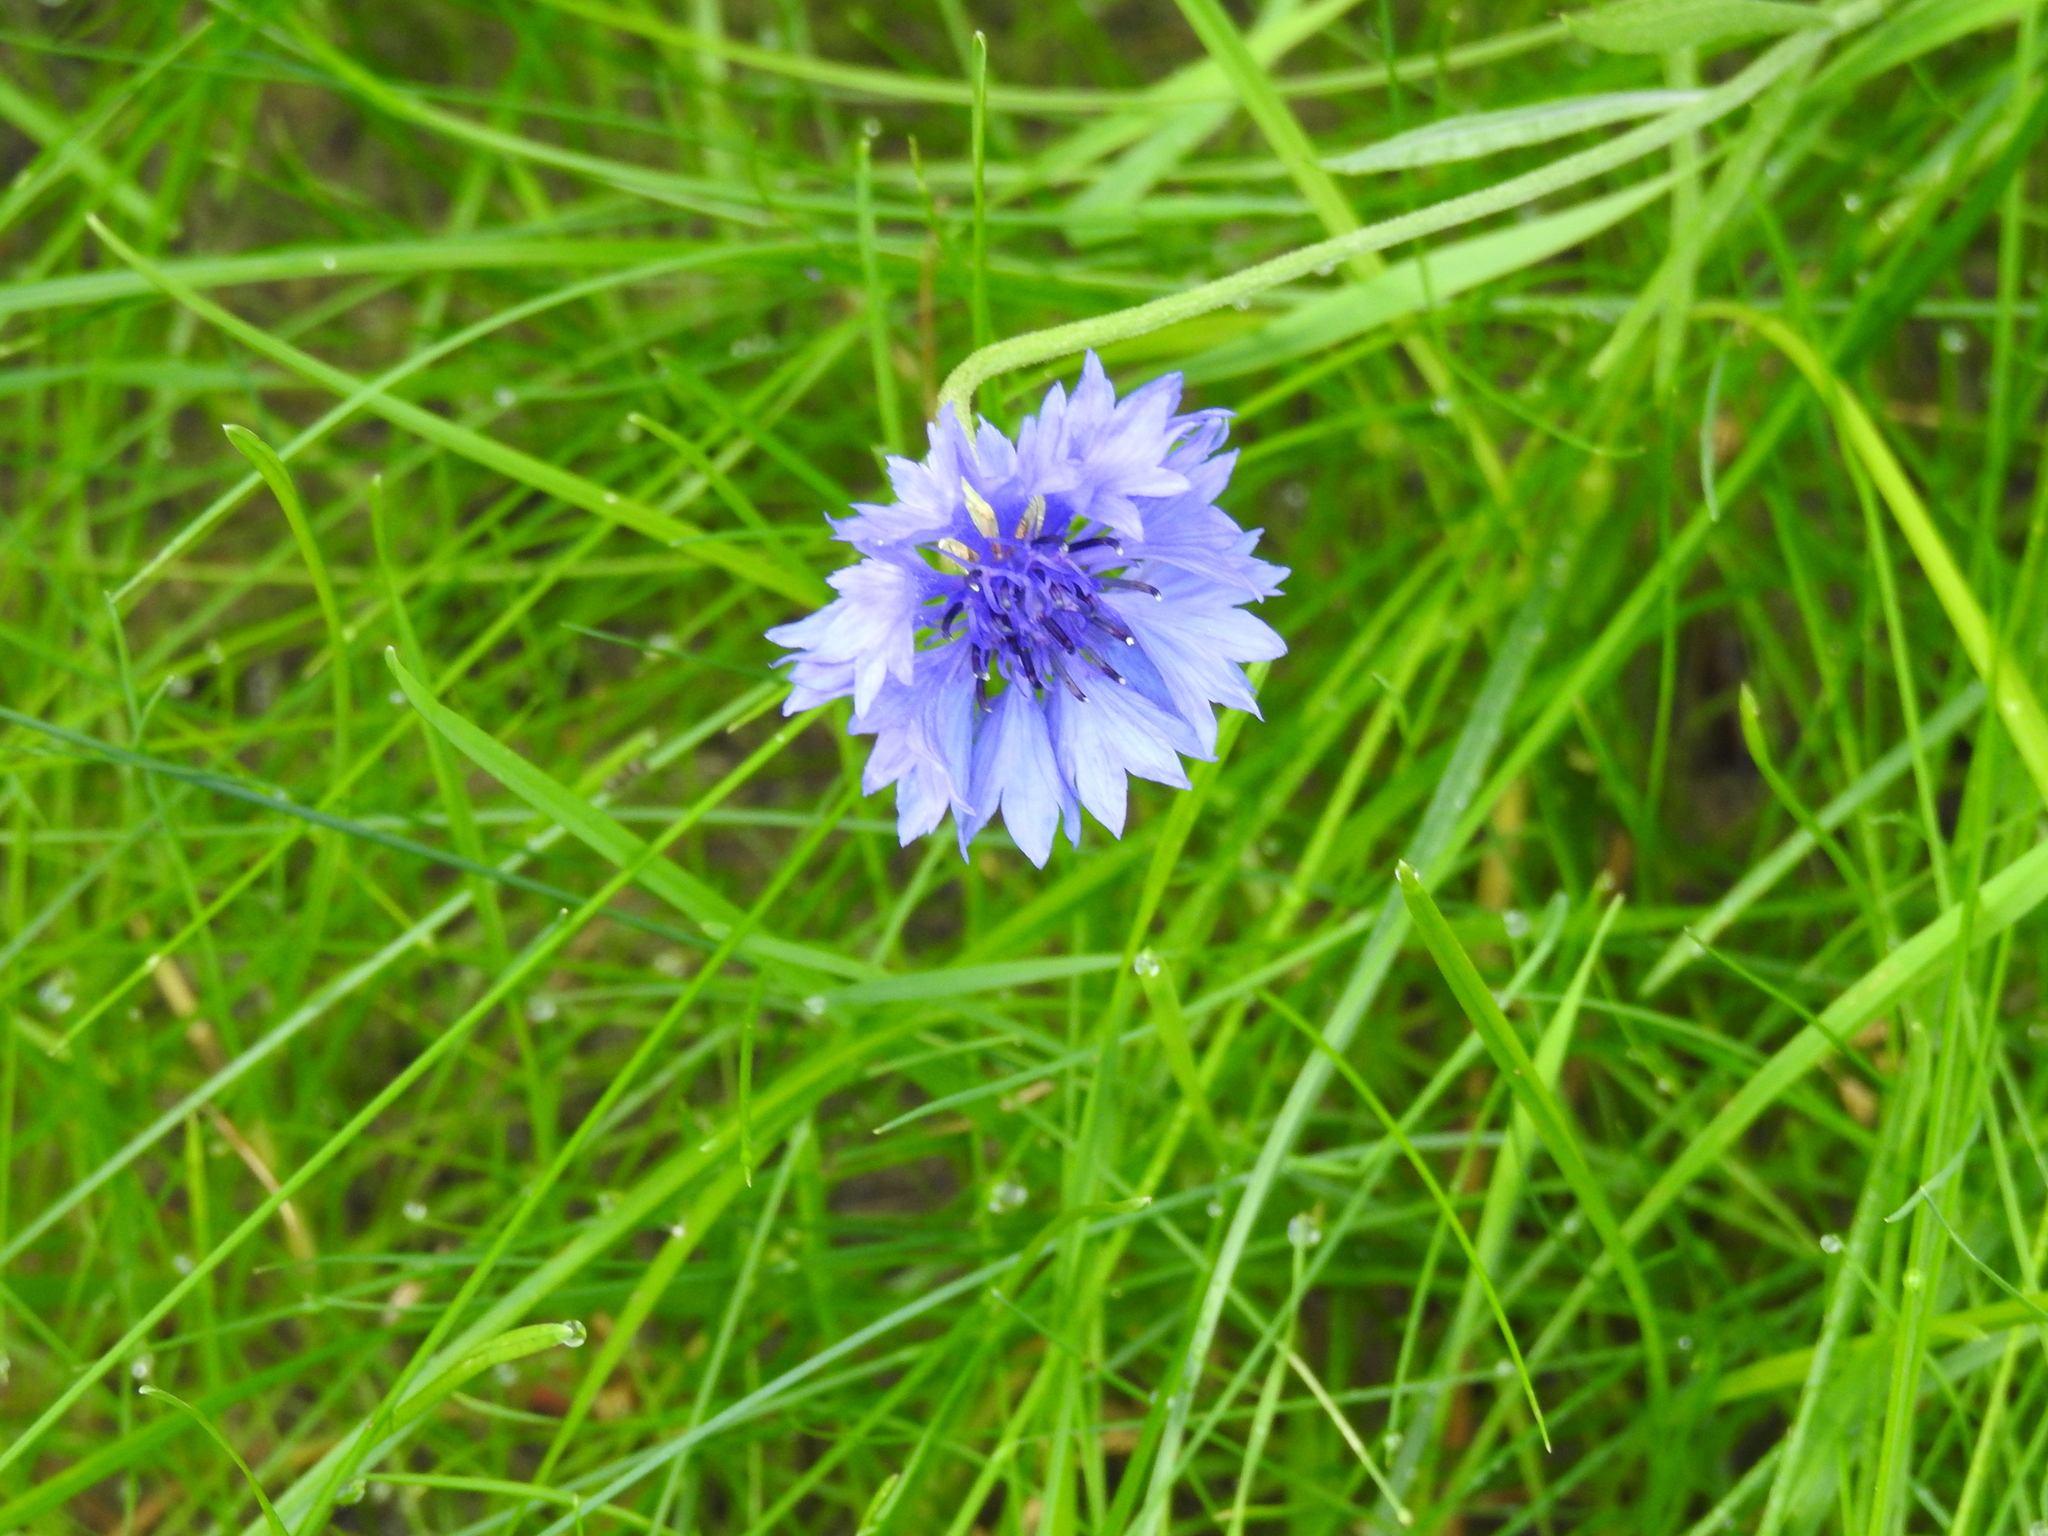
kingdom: Plantae
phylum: Tracheophyta
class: Magnoliopsida
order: Asterales
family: Asteraceae
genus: Centaurea
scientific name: Centaurea cyanus
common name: Cornflower
